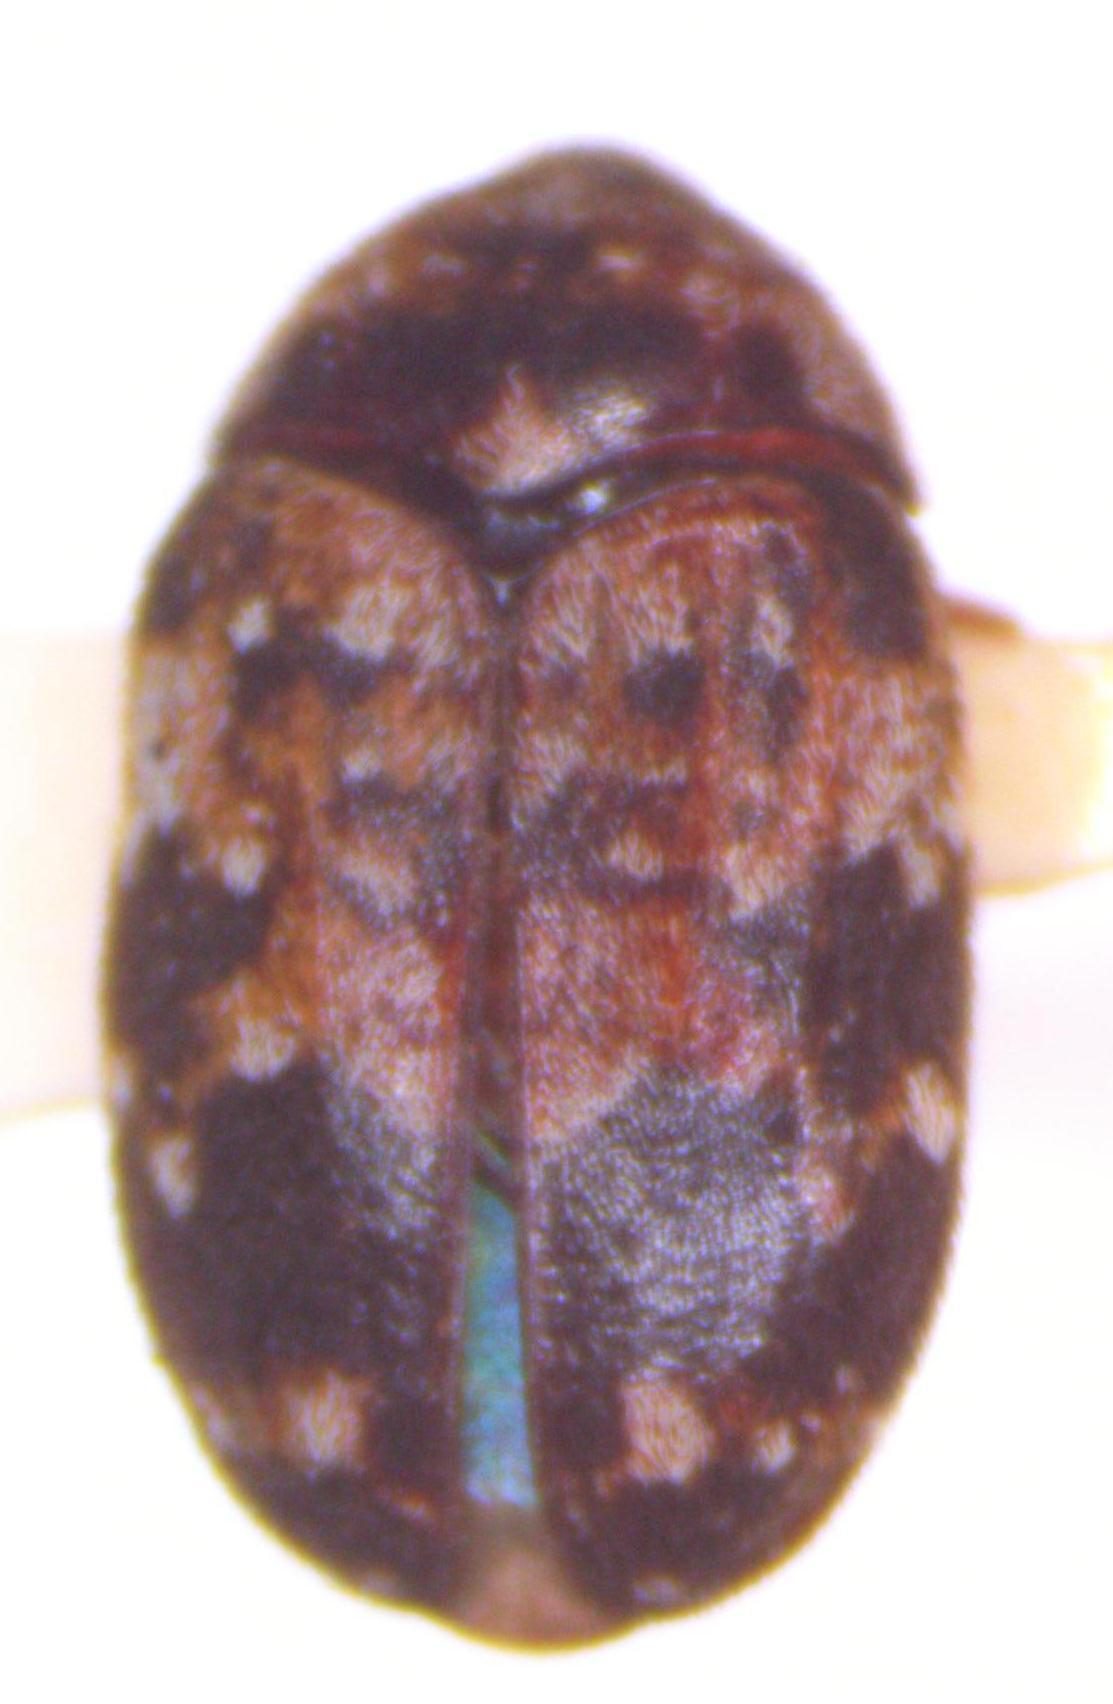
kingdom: Animalia
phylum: Arthropoda
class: Insecta
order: Coleoptera
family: Dermestidae
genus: Trogoderma
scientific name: Trogoderma
